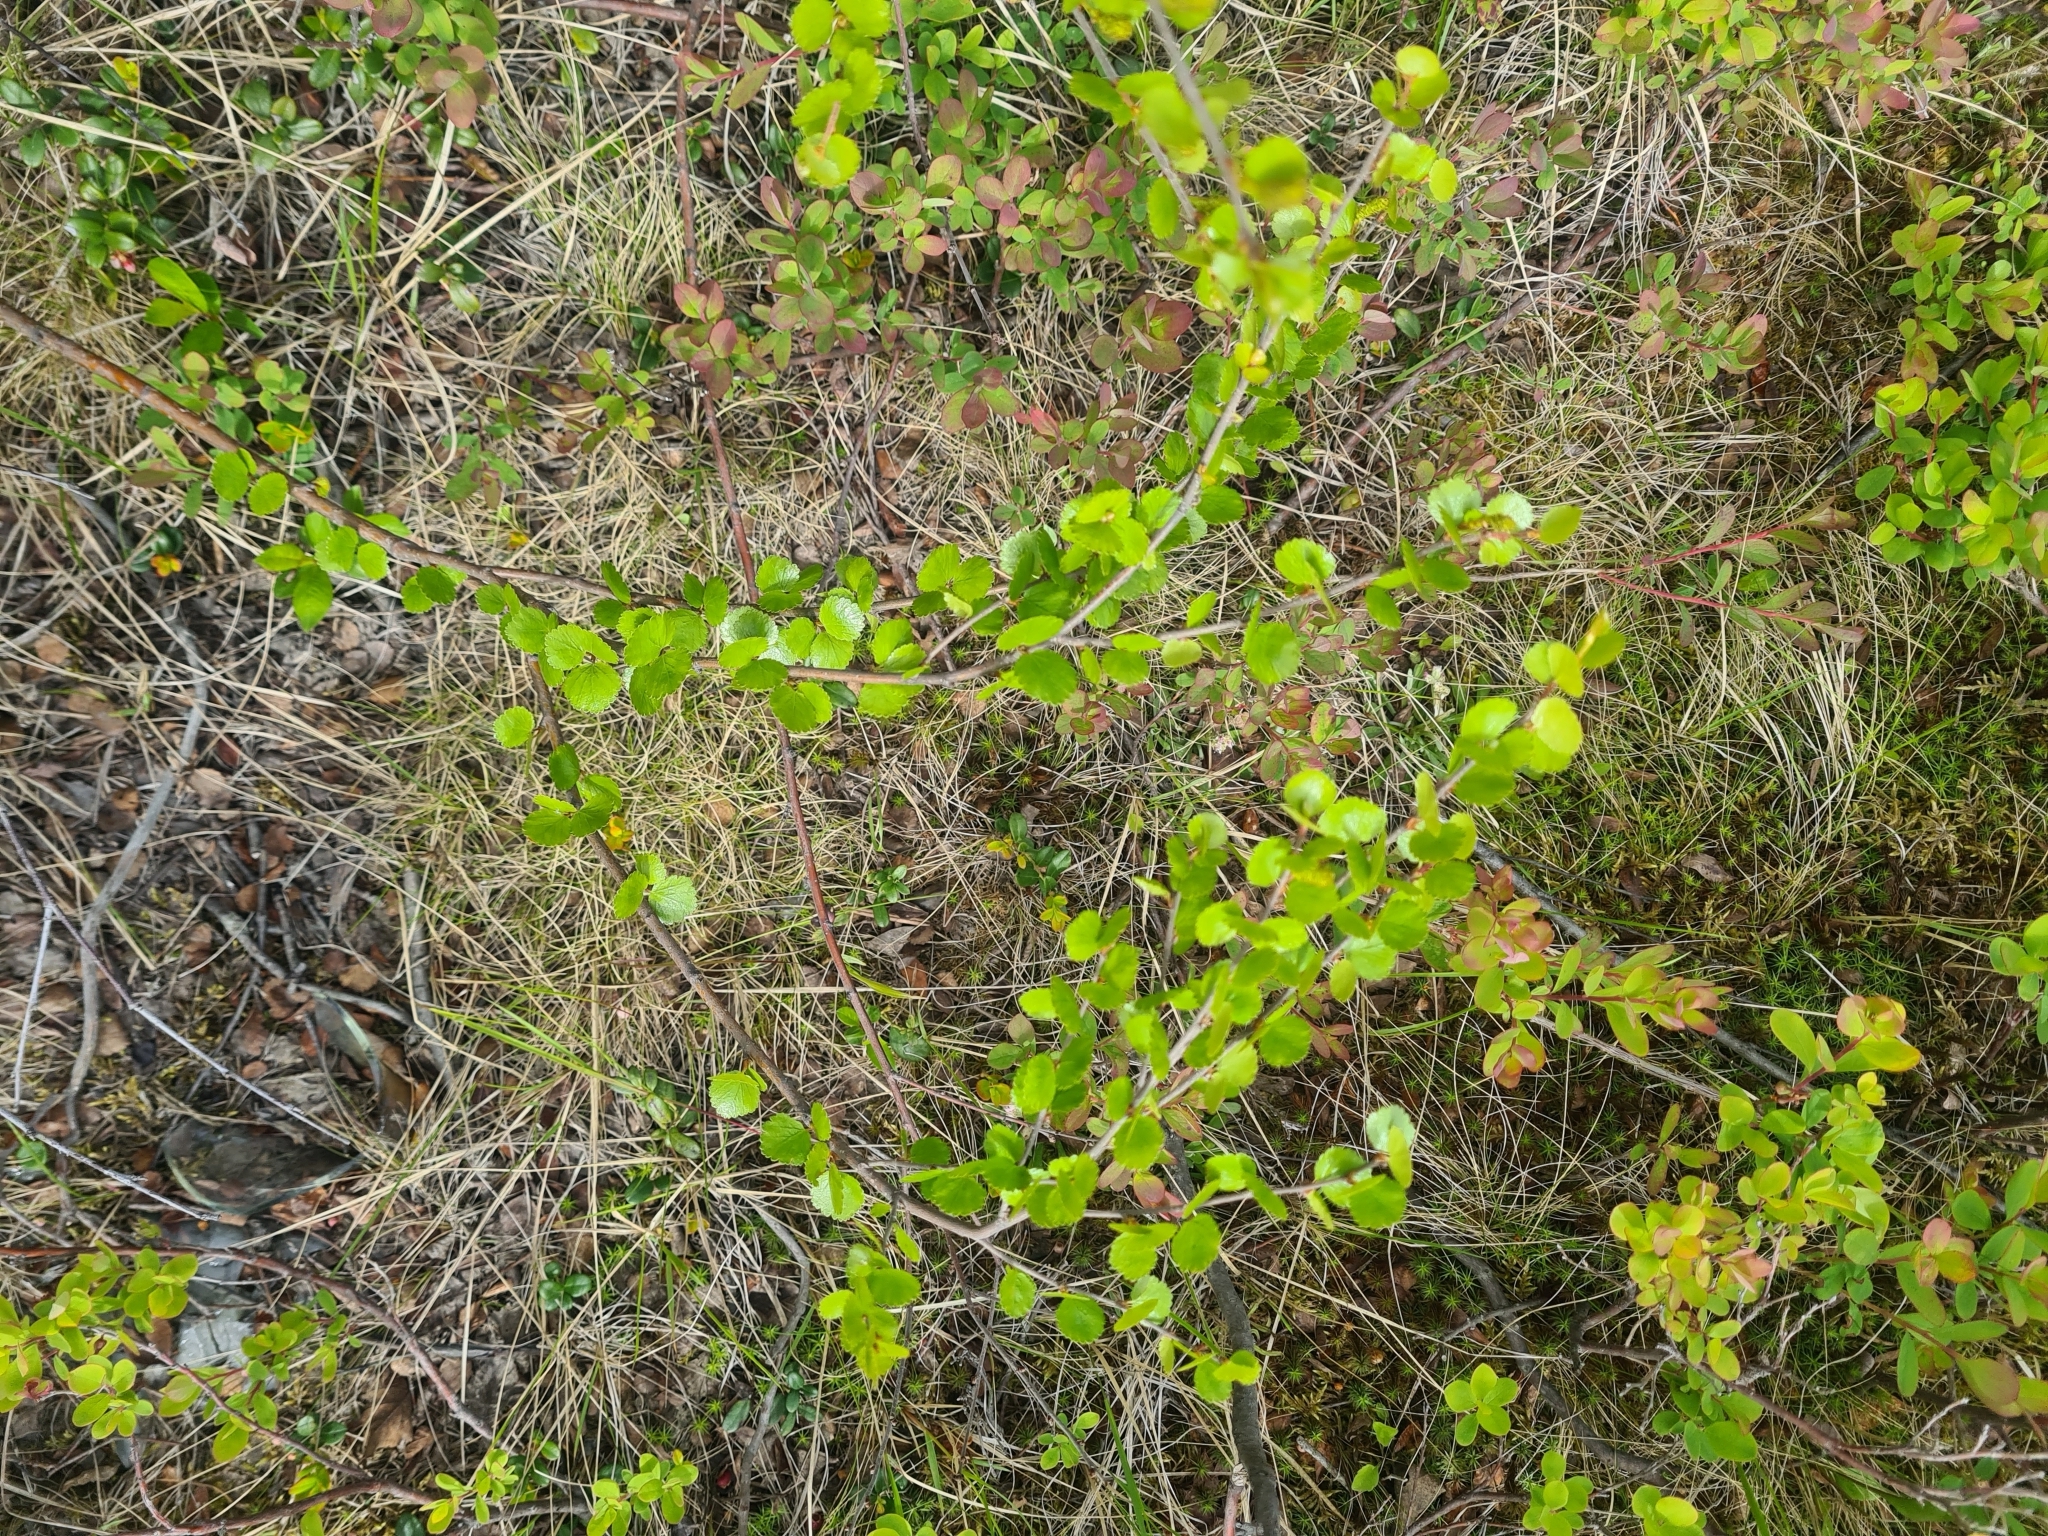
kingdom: Plantae
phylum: Tracheophyta
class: Magnoliopsida
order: Fagales
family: Betulaceae
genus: Betula
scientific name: Betula nana
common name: Arctic dwarf birch
